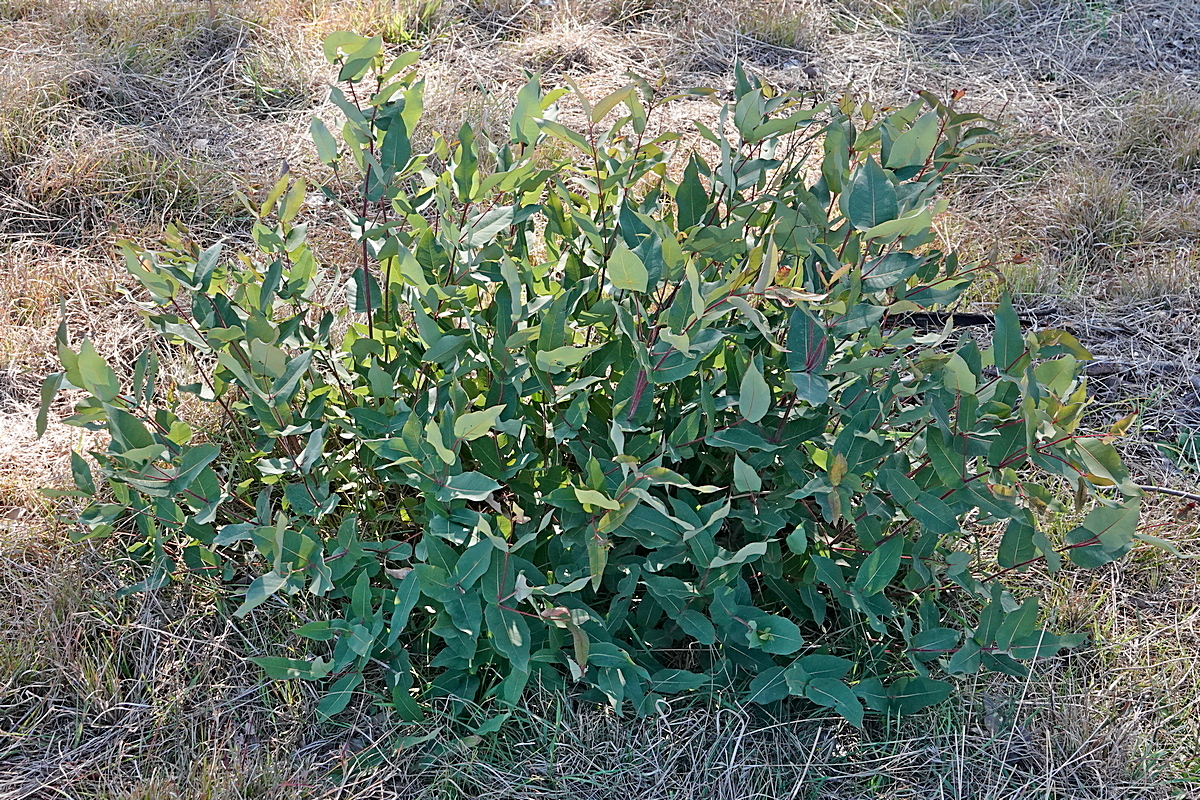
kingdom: Plantae
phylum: Tracheophyta
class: Magnoliopsida
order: Myrtales
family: Myrtaceae
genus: Angophora
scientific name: Angophora floribunda
